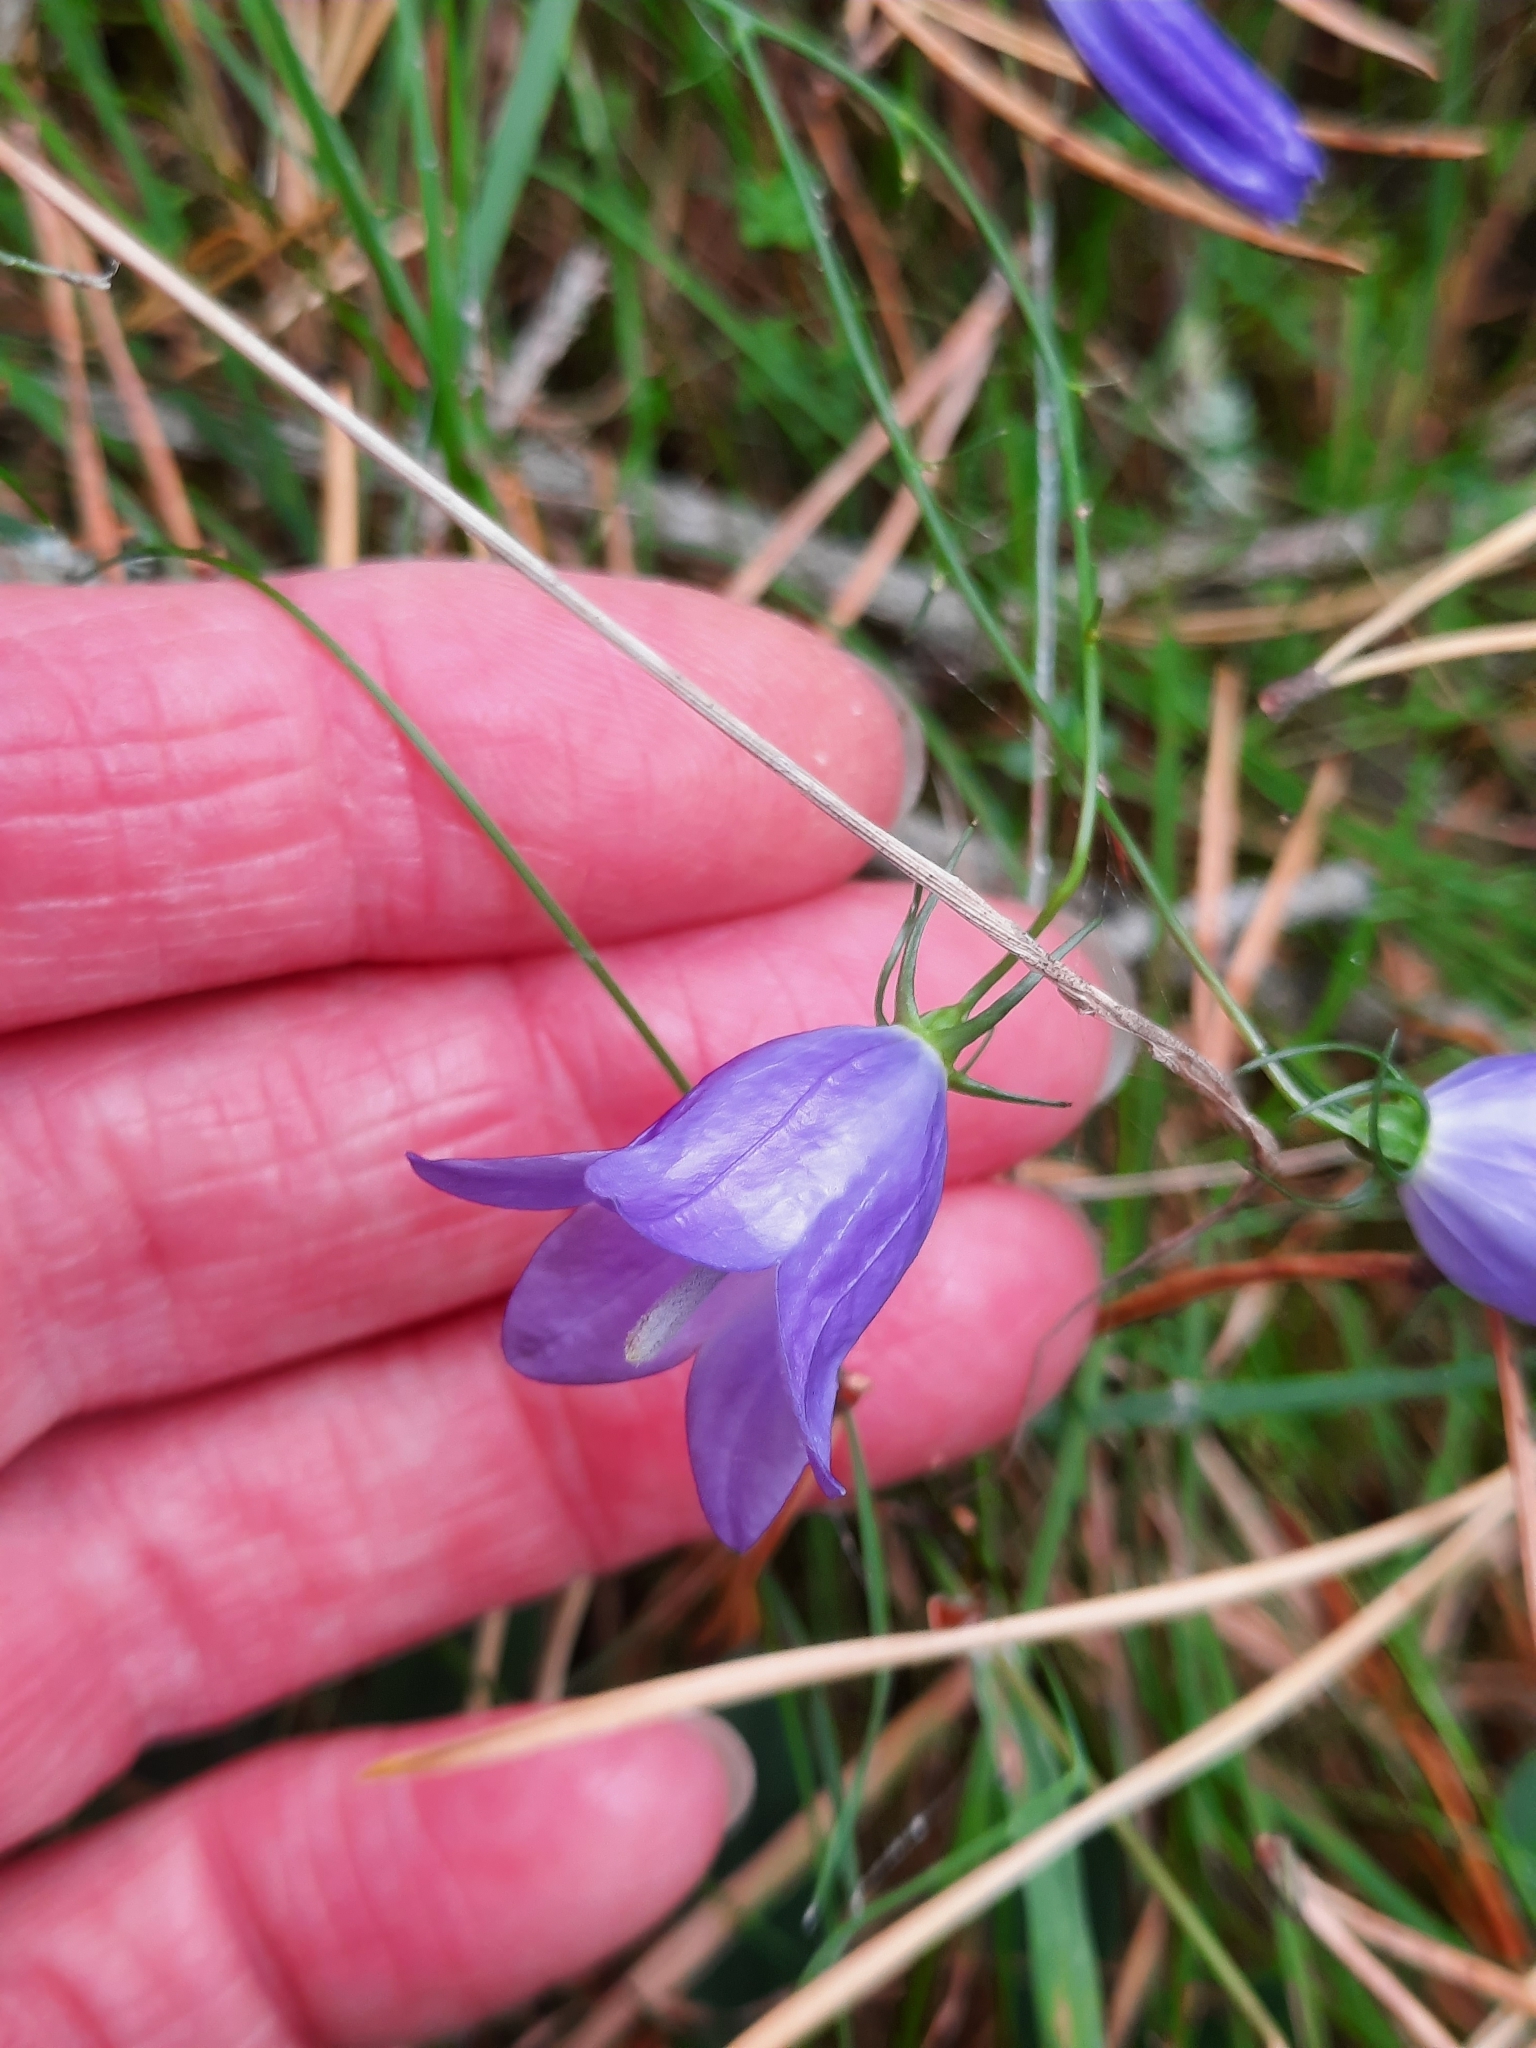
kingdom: Plantae
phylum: Tracheophyta
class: Magnoliopsida
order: Asterales
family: Campanulaceae
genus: Campanula
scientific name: Campanula rotundifolia
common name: Harebell
